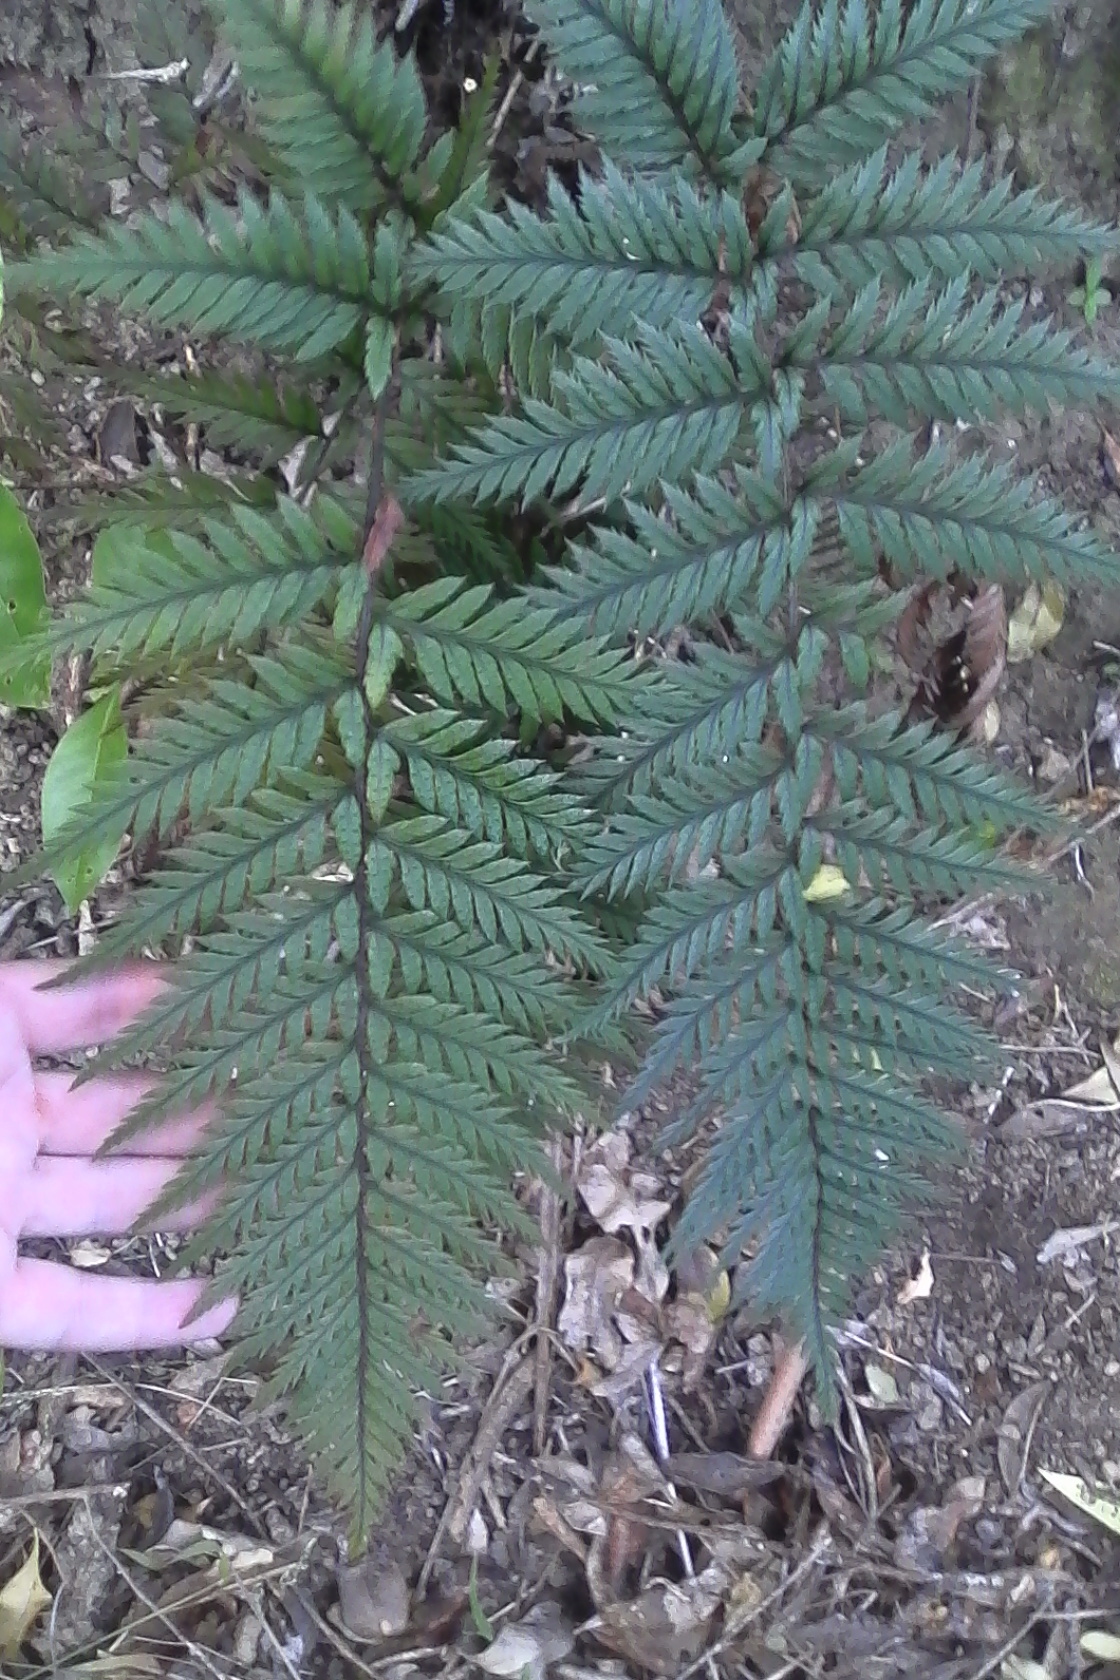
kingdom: Plantae
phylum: Tracheophyta
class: Polypodiopsida
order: Polypodiales
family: Dryopteridaceae
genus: Polystichum
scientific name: Polystichum neozelandicum
